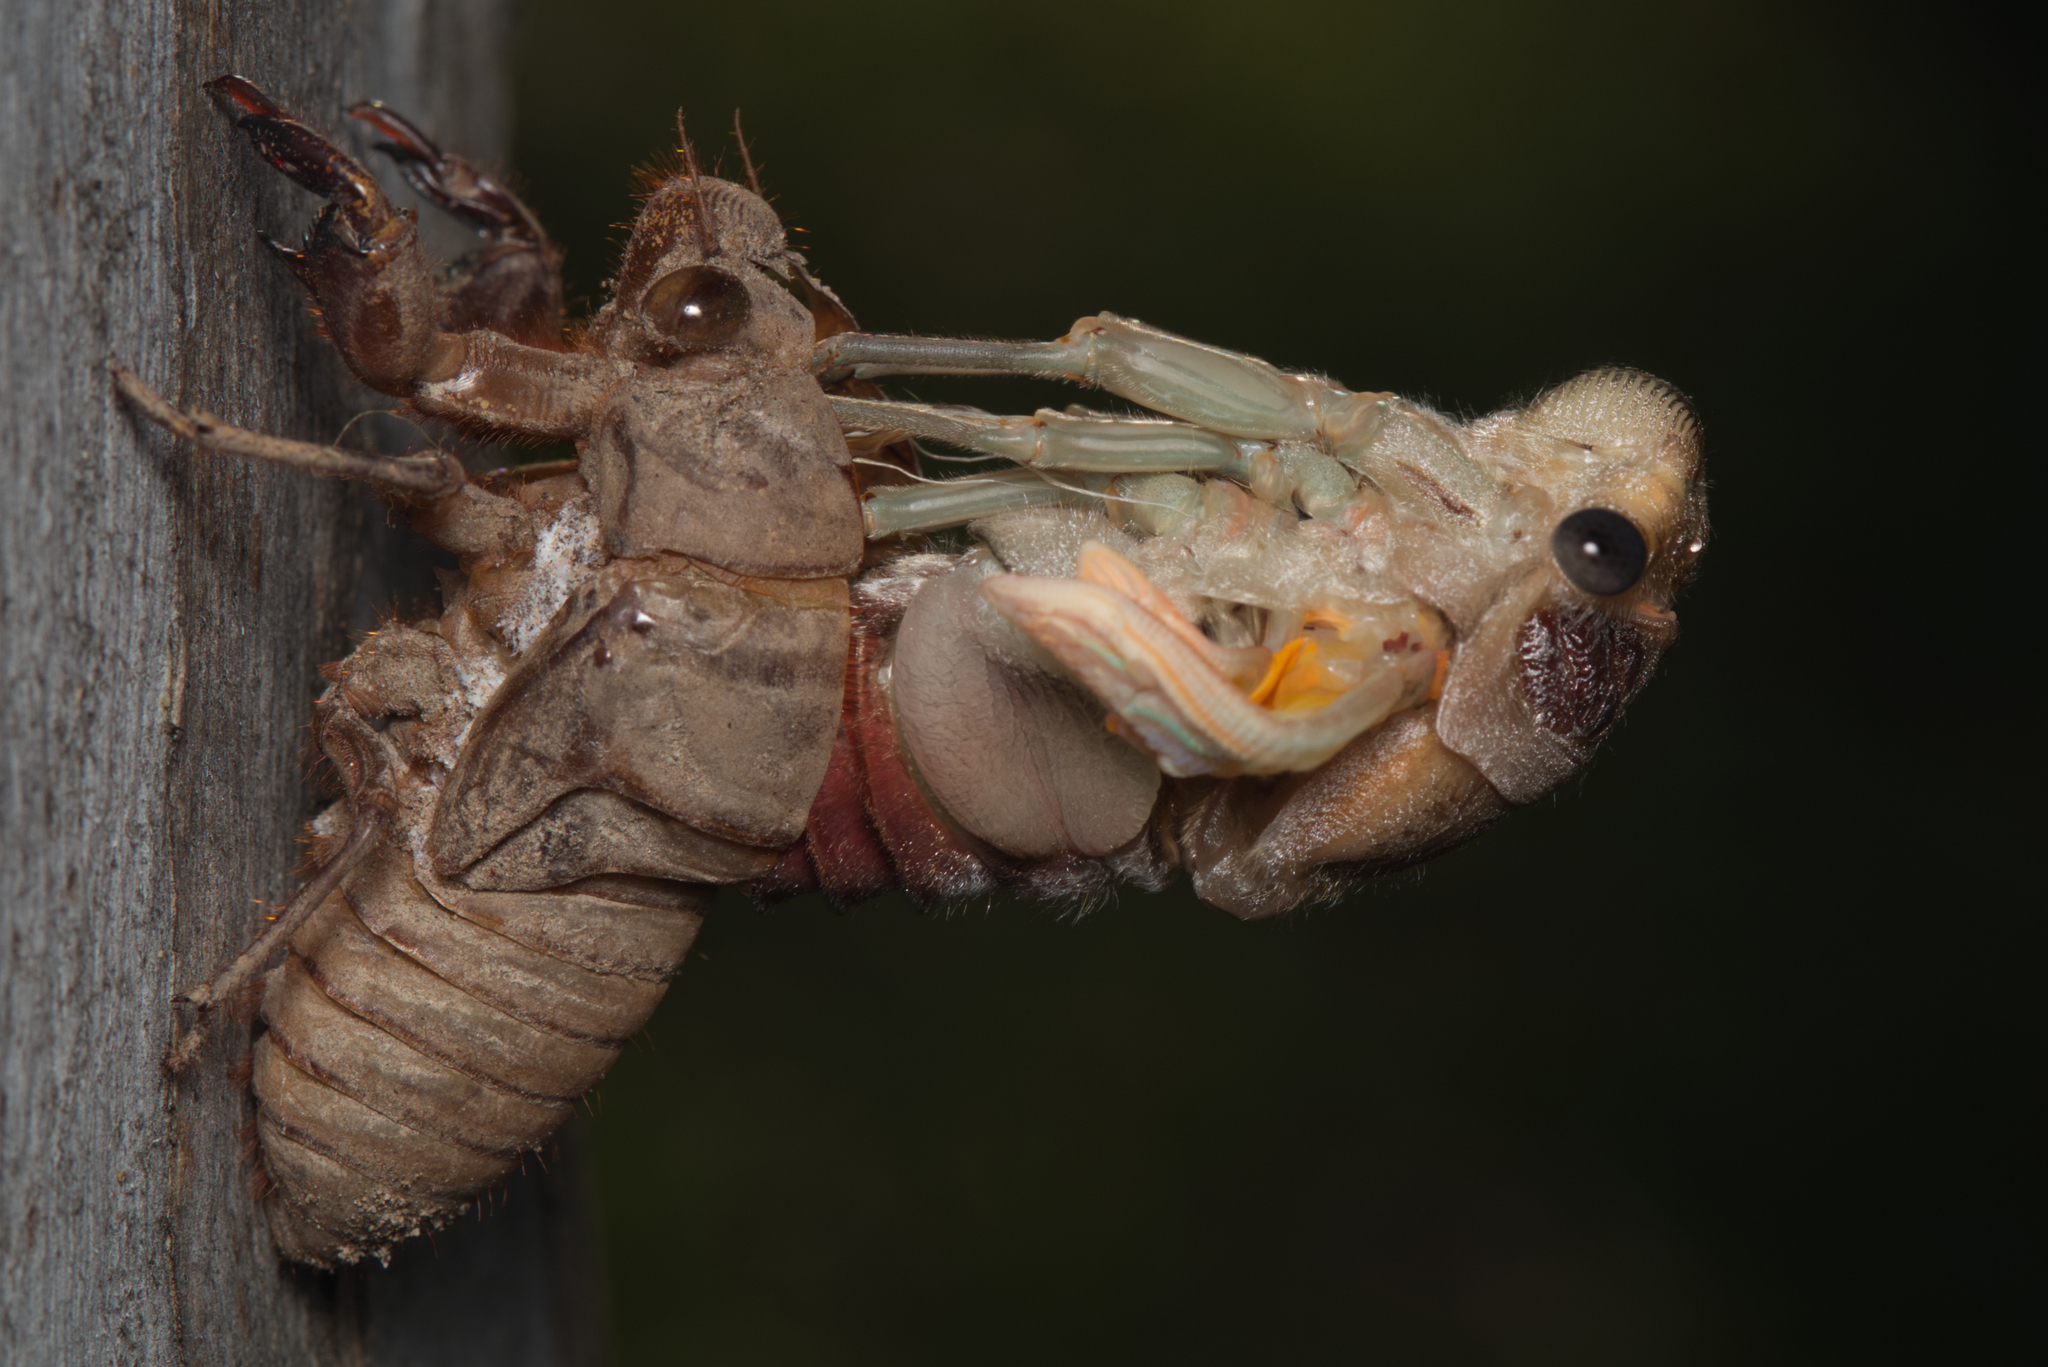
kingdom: Animalia
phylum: Arthropoda
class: Insecta
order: Hemiptera
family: Cicadidae
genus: Thopha
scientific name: Thopha saccata
